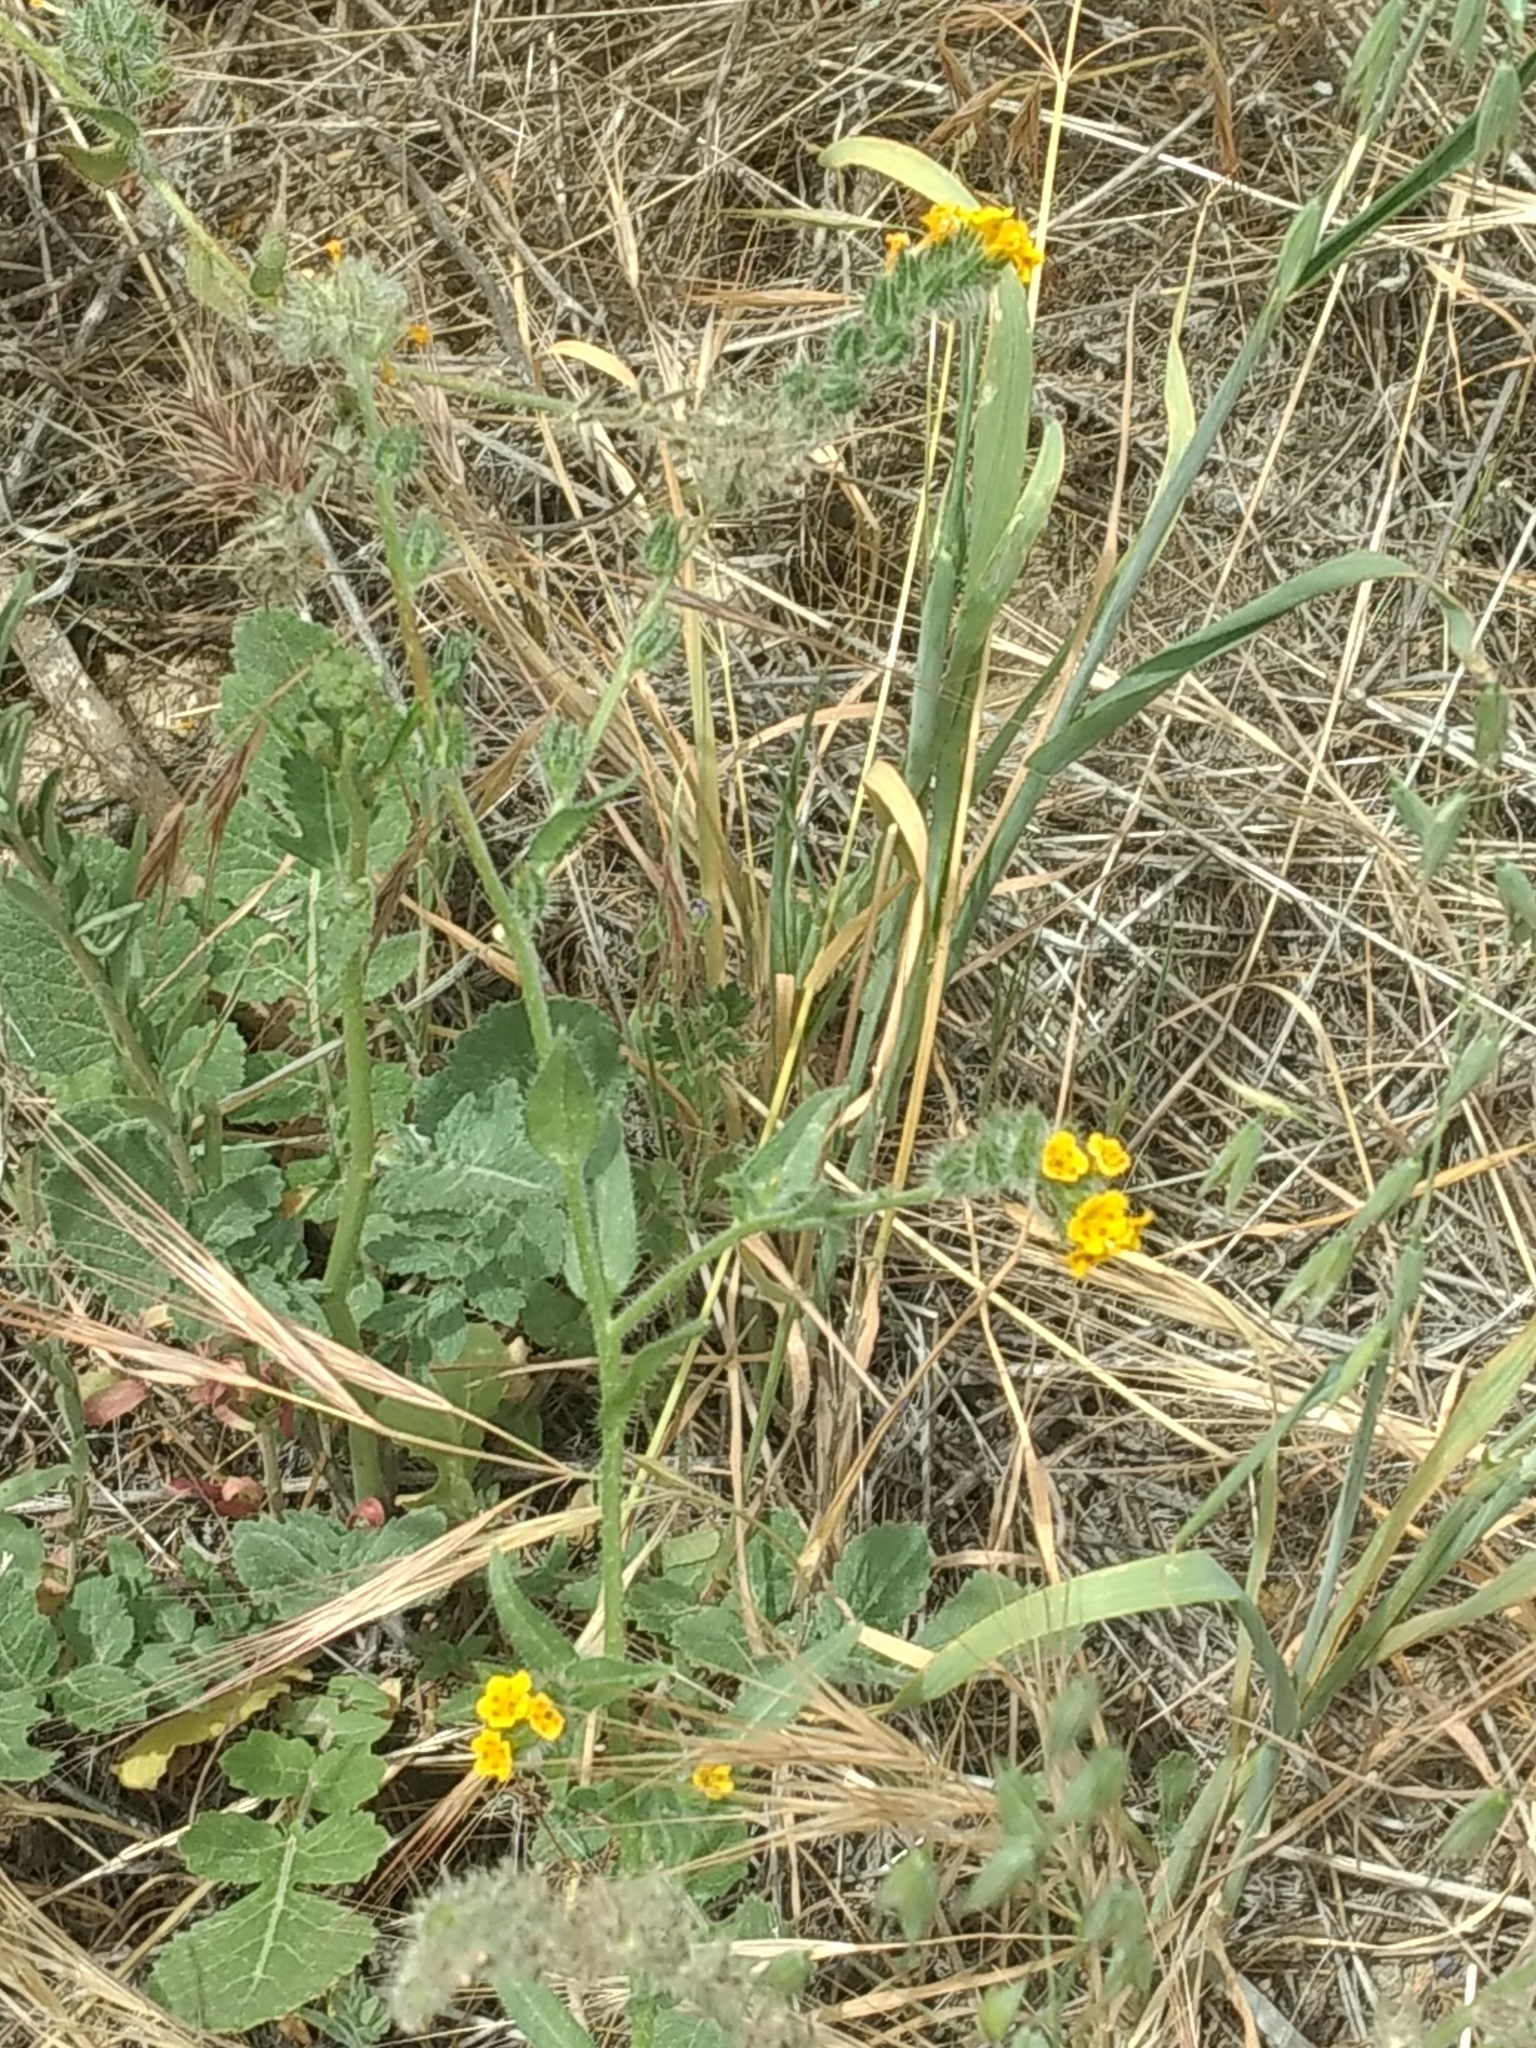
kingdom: Plantae
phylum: Tracheophyta
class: Magnoliopsida
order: Boraginales
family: Boraginaceae
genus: Amsinckia
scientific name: Amsinckia menziesii
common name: Menzies' fiddleneck
